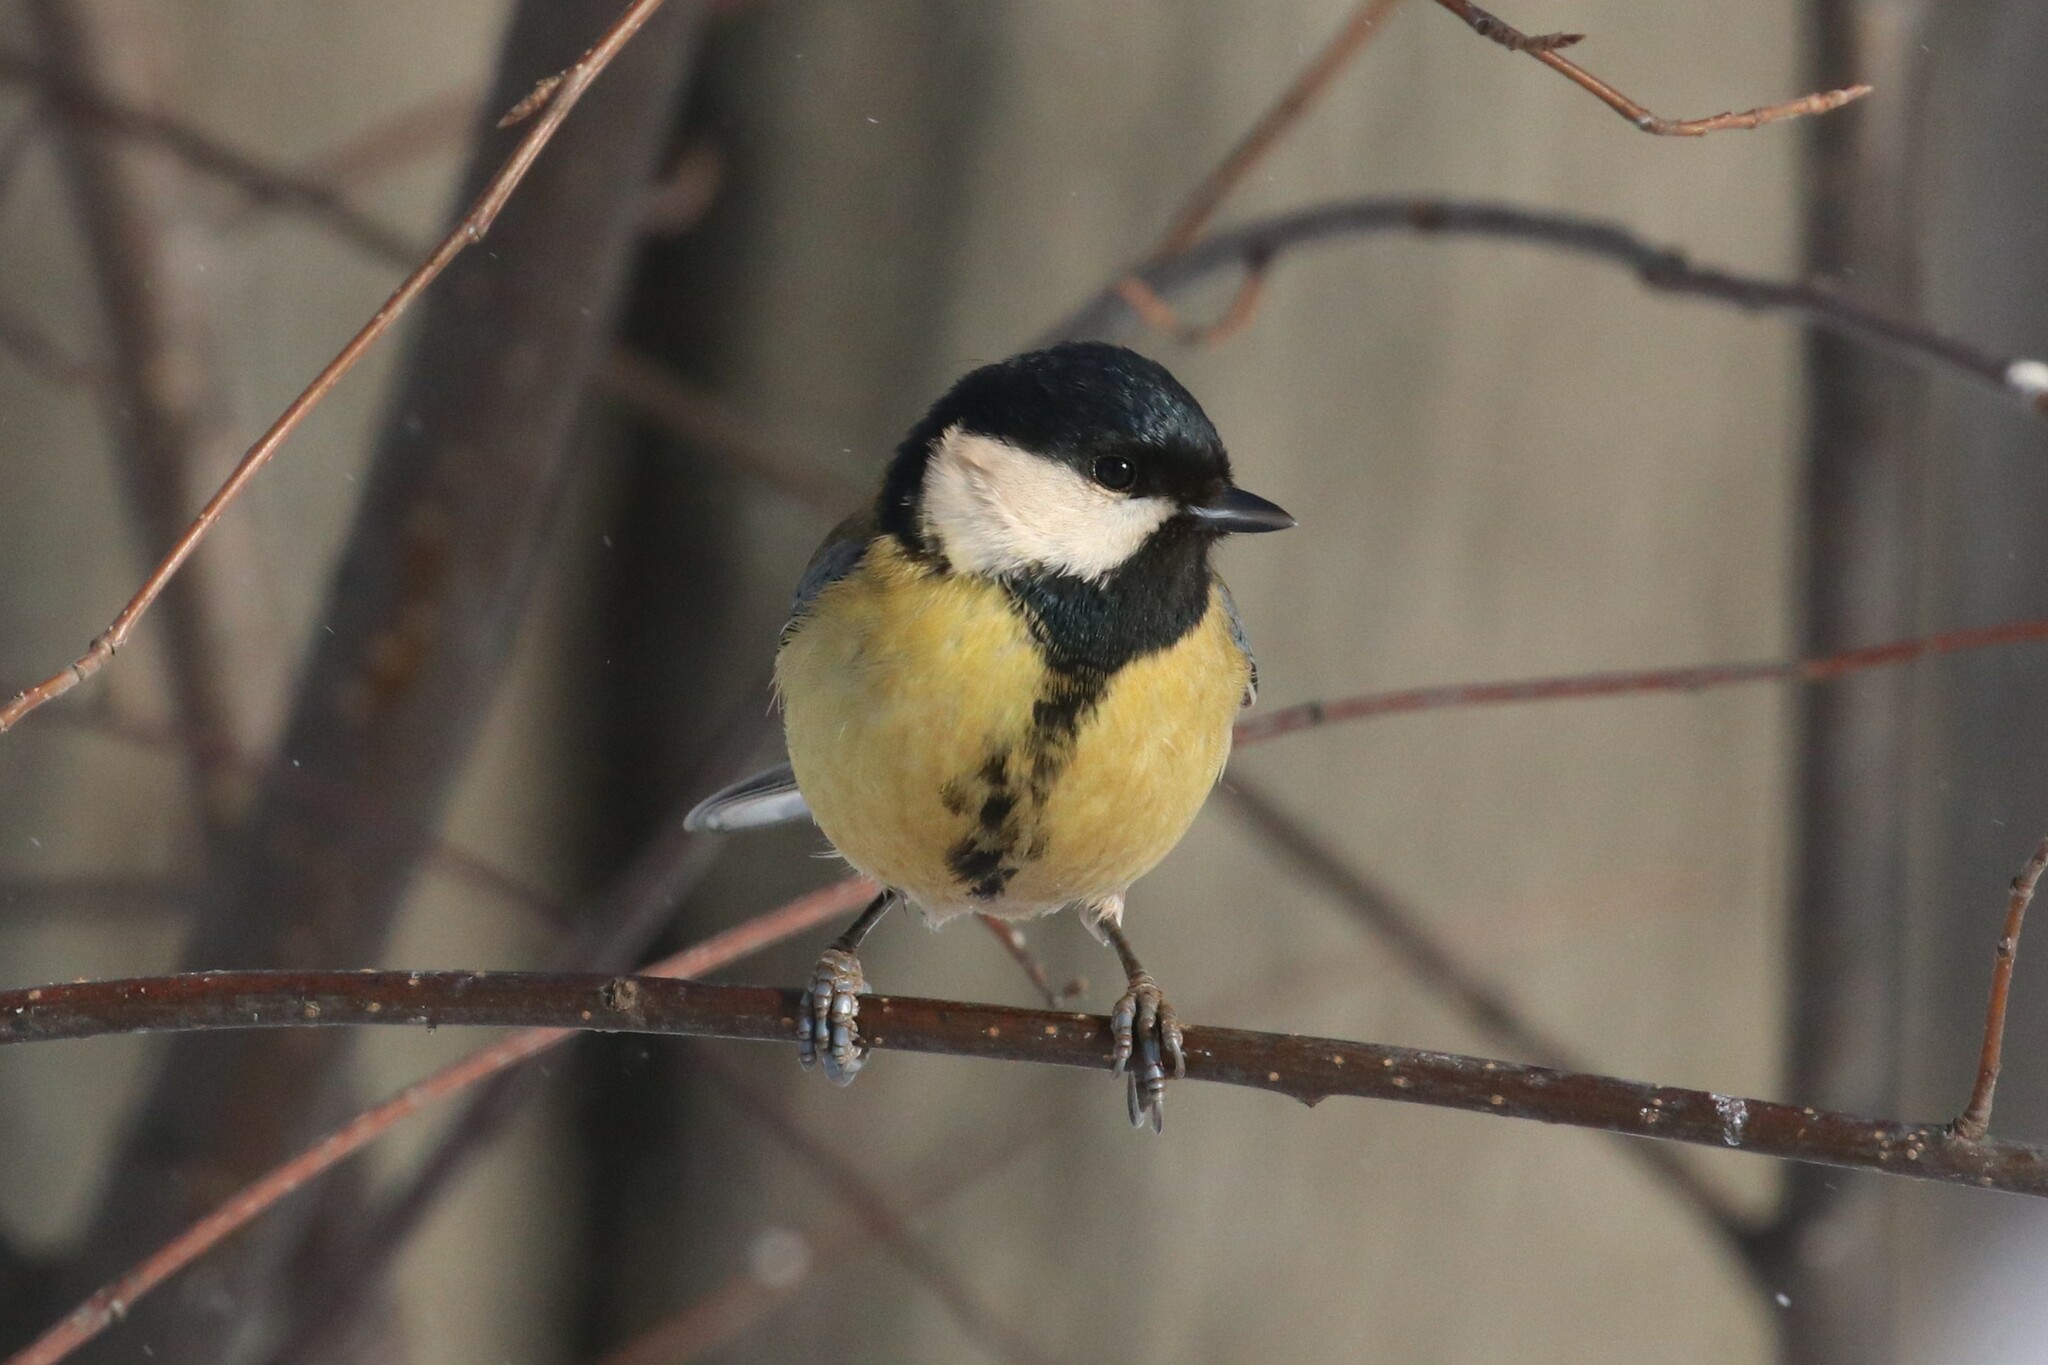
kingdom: Animalia
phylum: Chordata
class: Aves
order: Passeriformes
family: Paridae
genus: Parus
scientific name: Parus major
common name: Great tit
